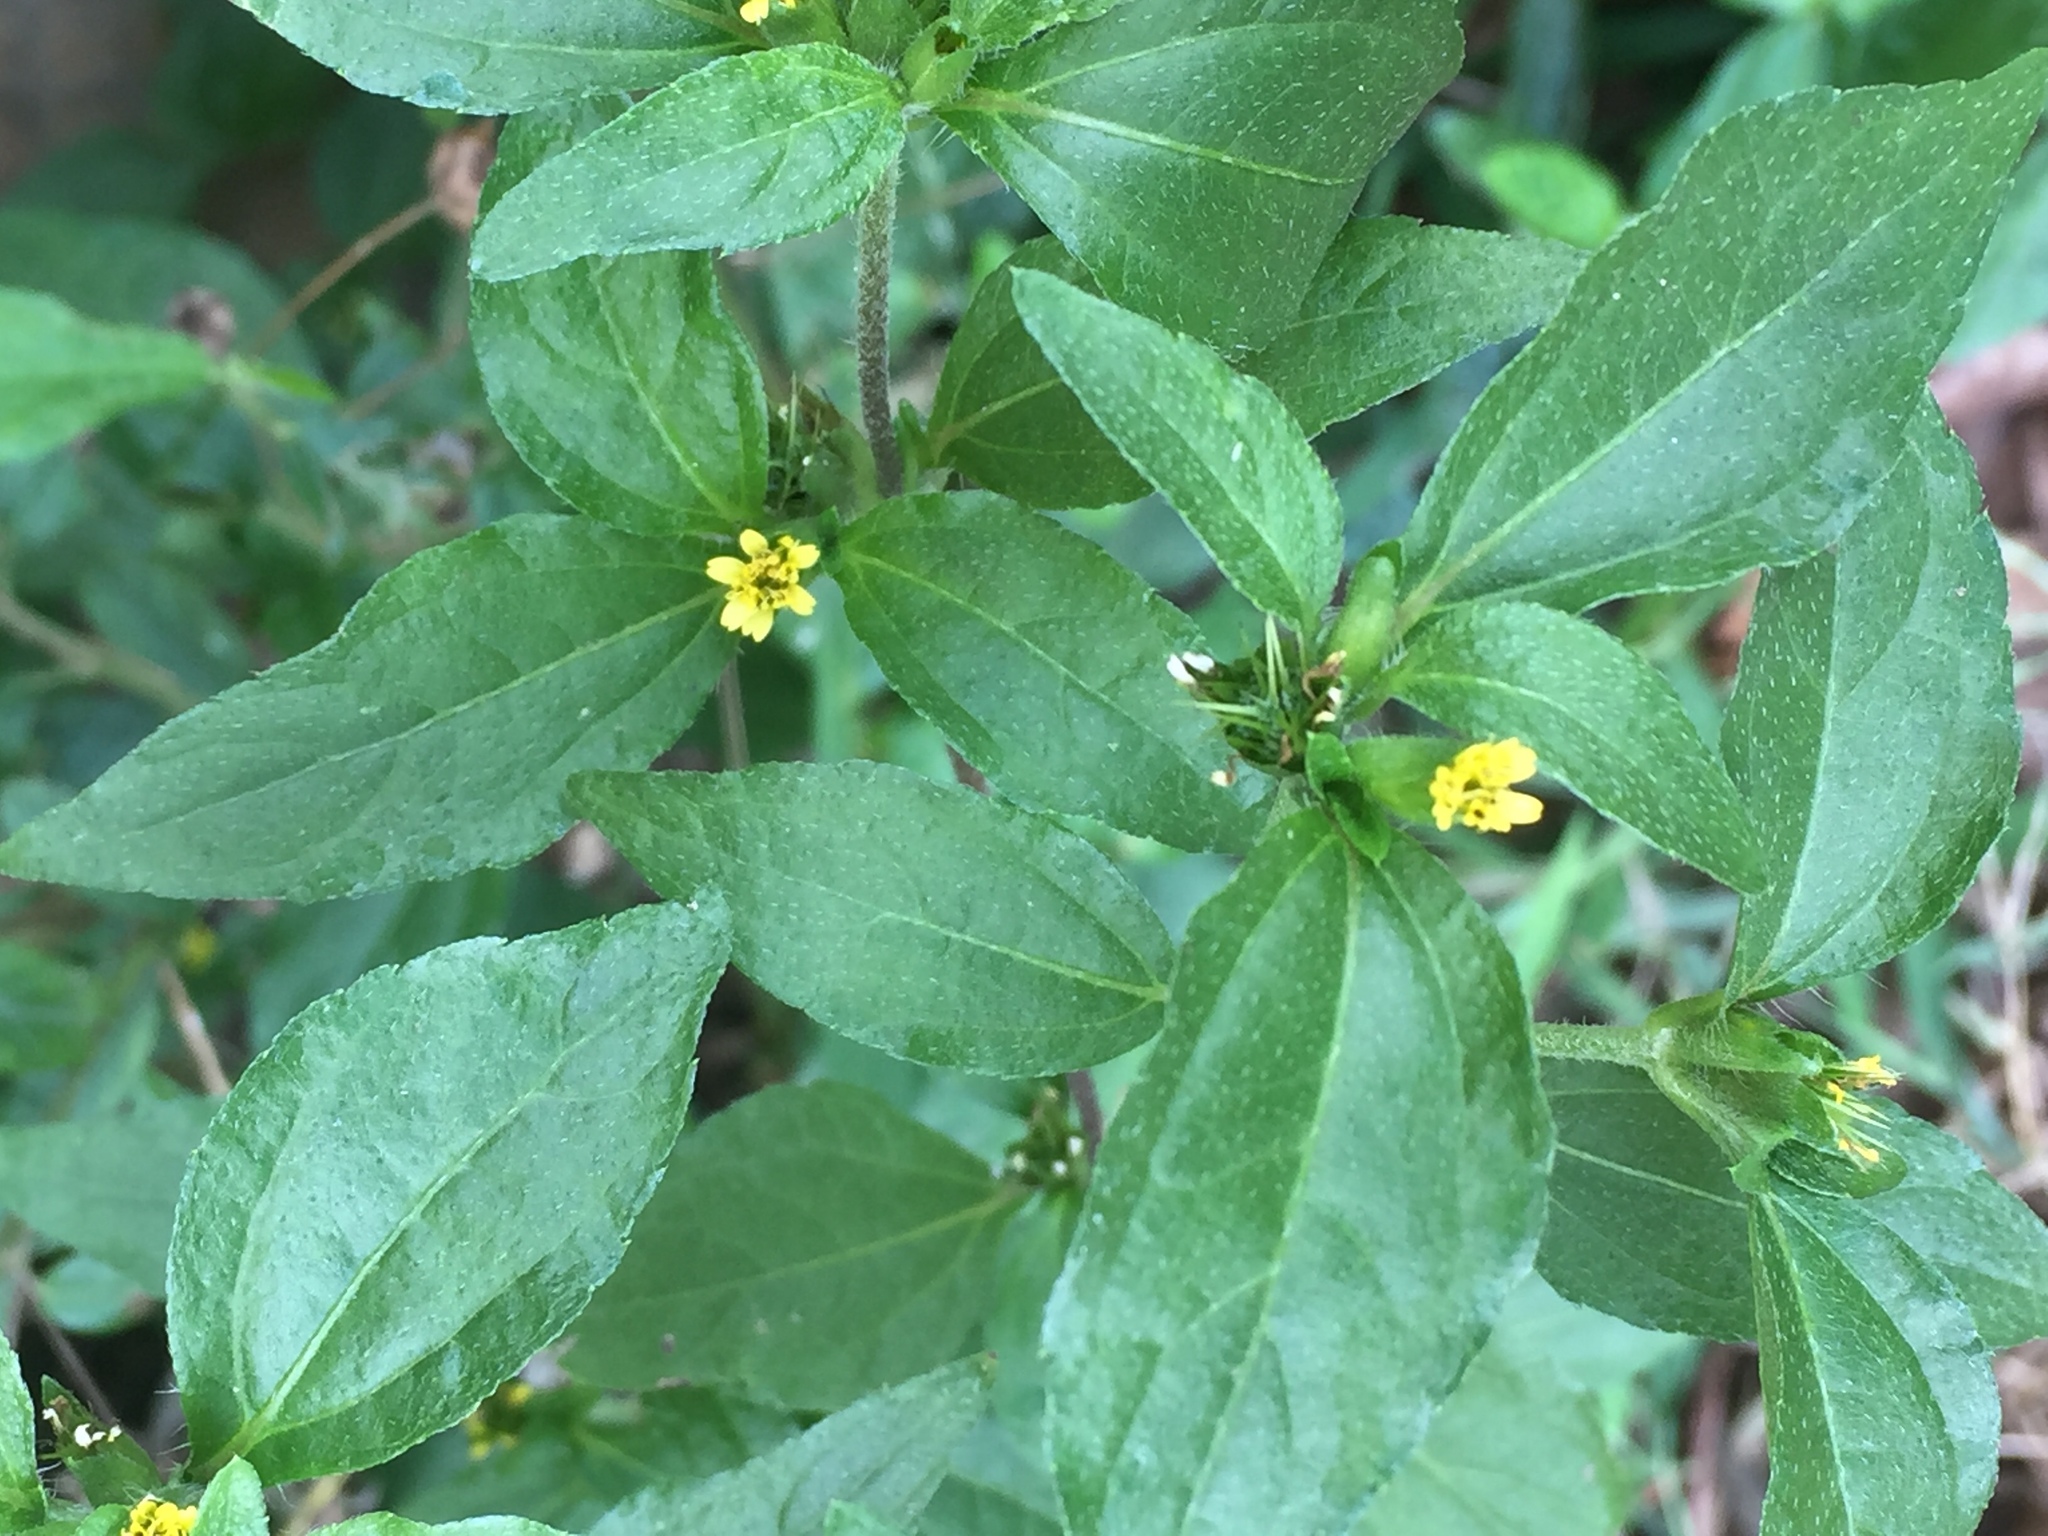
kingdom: Plantae
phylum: Tracheophyta
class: Magnoliopsida
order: Asterales
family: Asteraceae
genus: Synedrella
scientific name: Synedrella nodiflora
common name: Nodeweed
